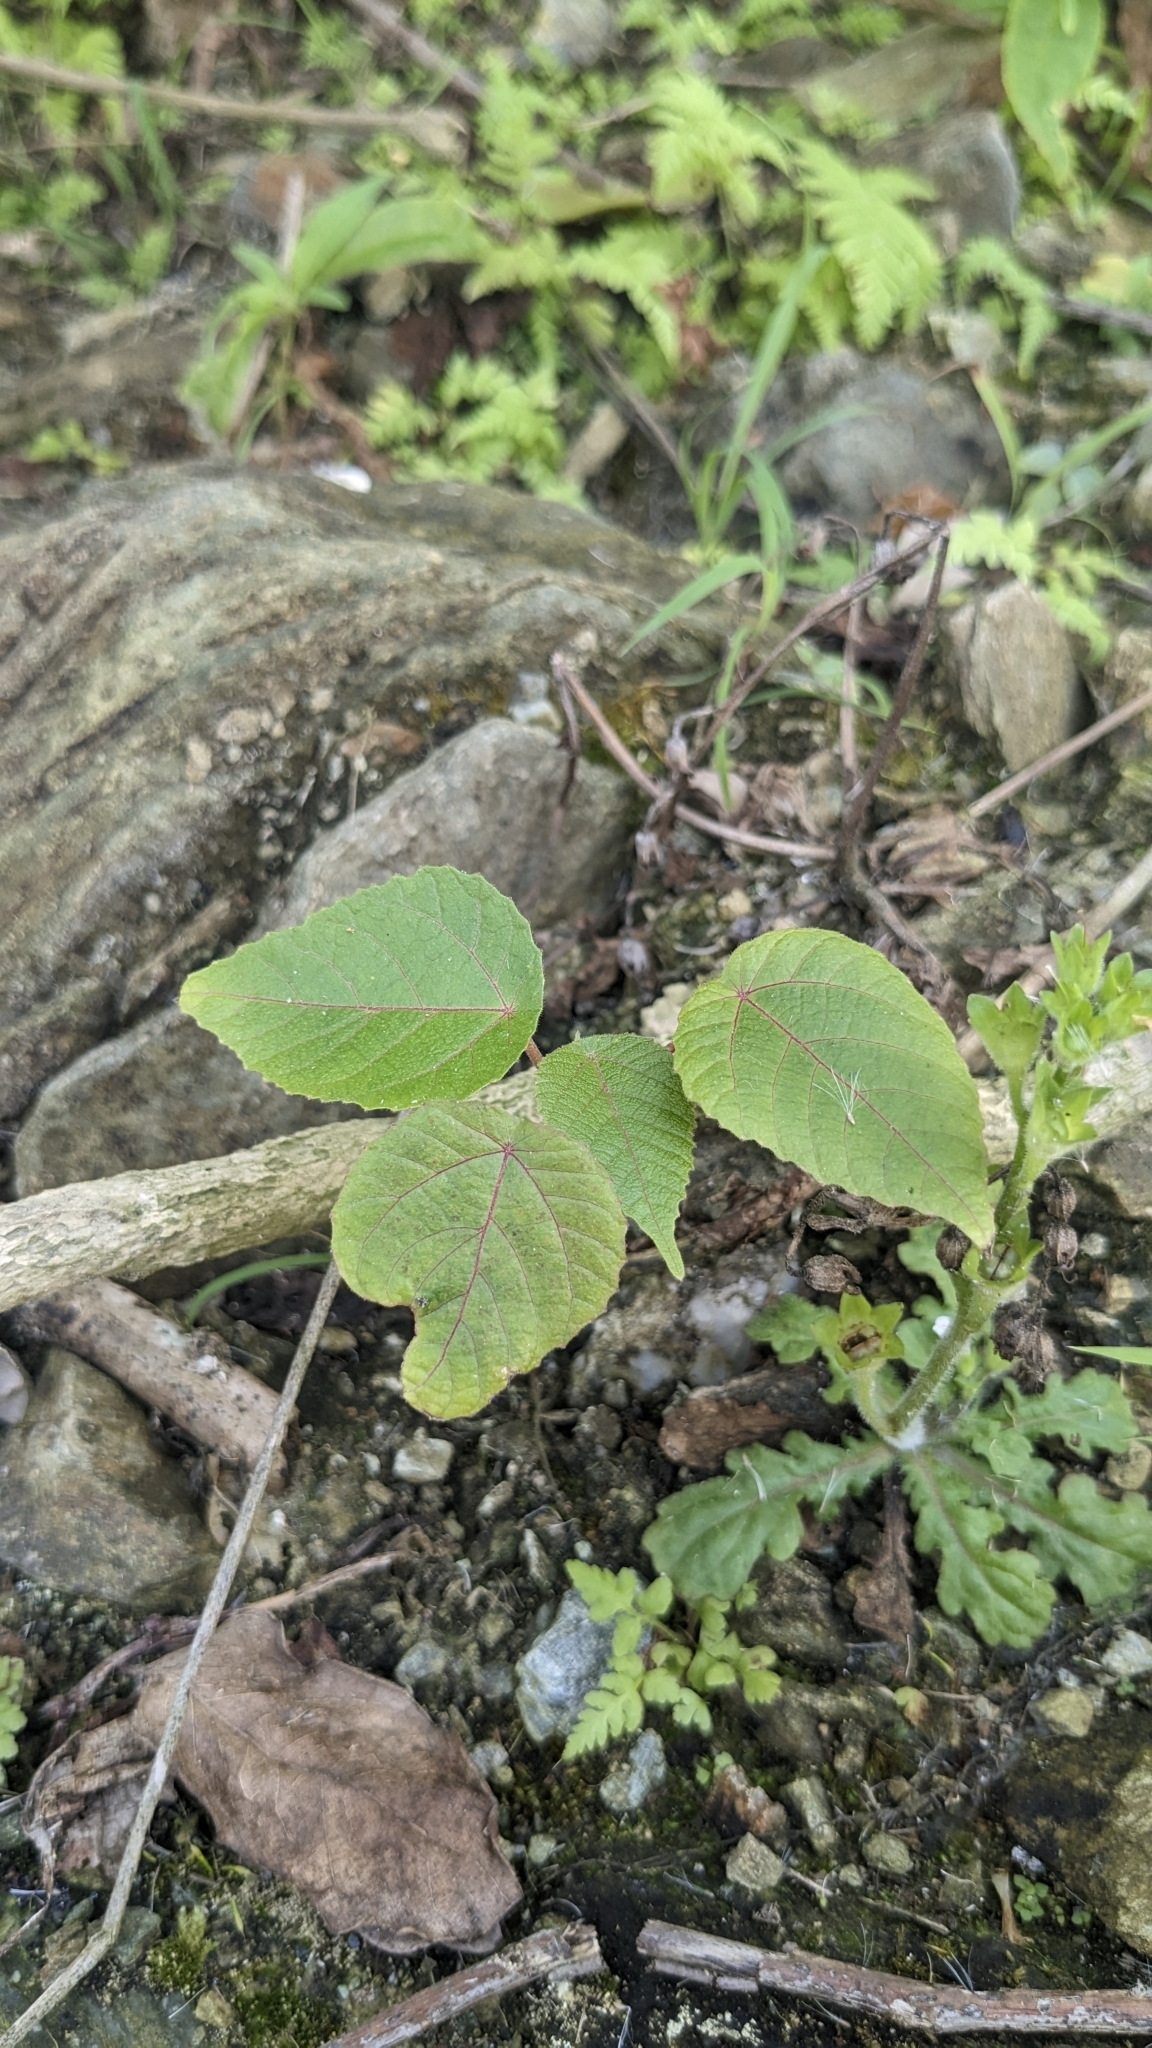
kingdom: Plantae
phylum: Tracheophyta
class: Magnoliopsida
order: Malpighiales
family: Euphorbiaceae
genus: Macaranga
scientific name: Macaranga tanarius
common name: Parasol leaf tree
